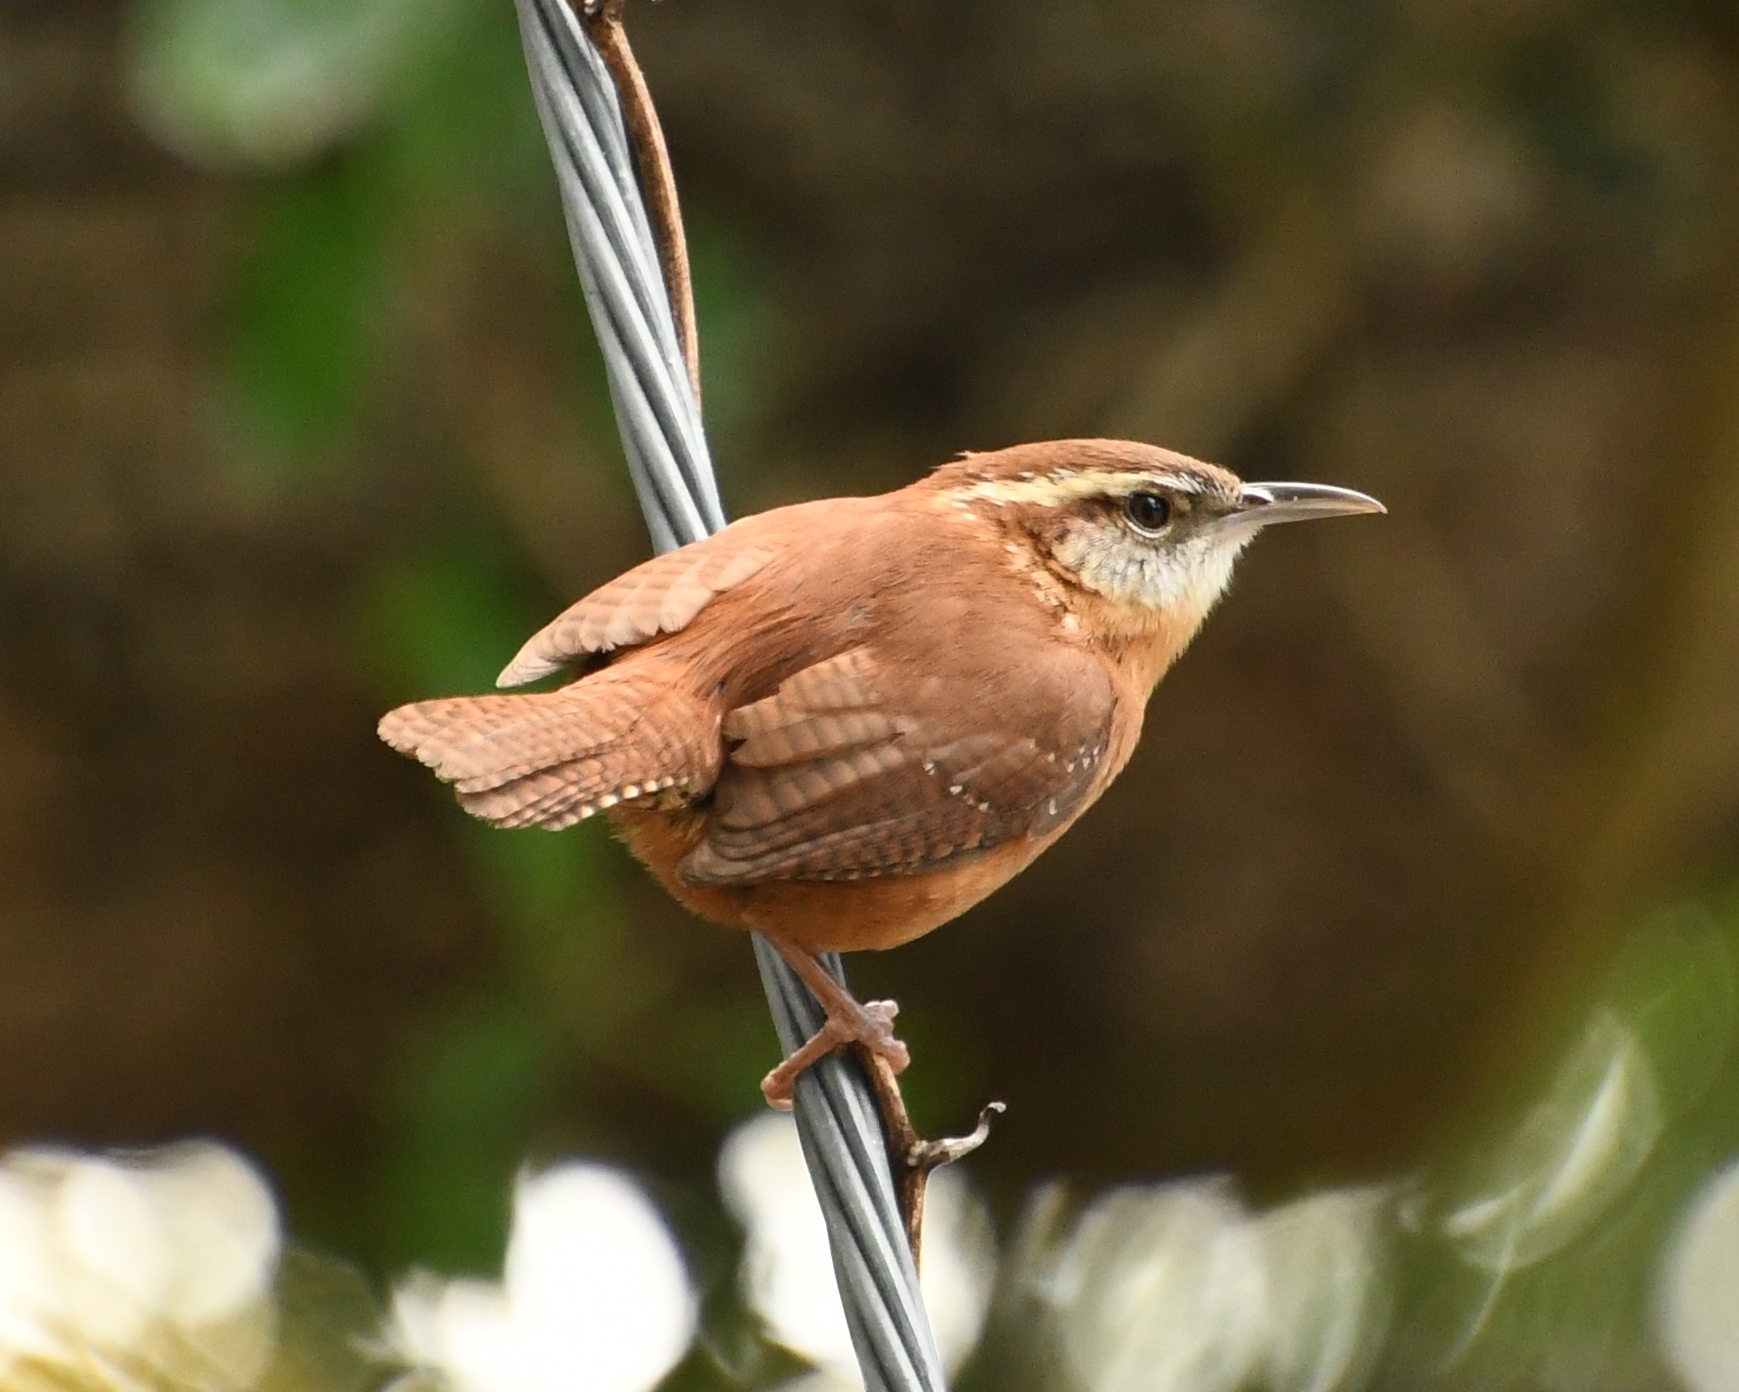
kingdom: Animalia
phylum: Chordata
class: Aves
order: Passeriformes
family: Troglodytidae
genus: Thryothorus
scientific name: Thryothorus ludovicianus
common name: Carolina wren
